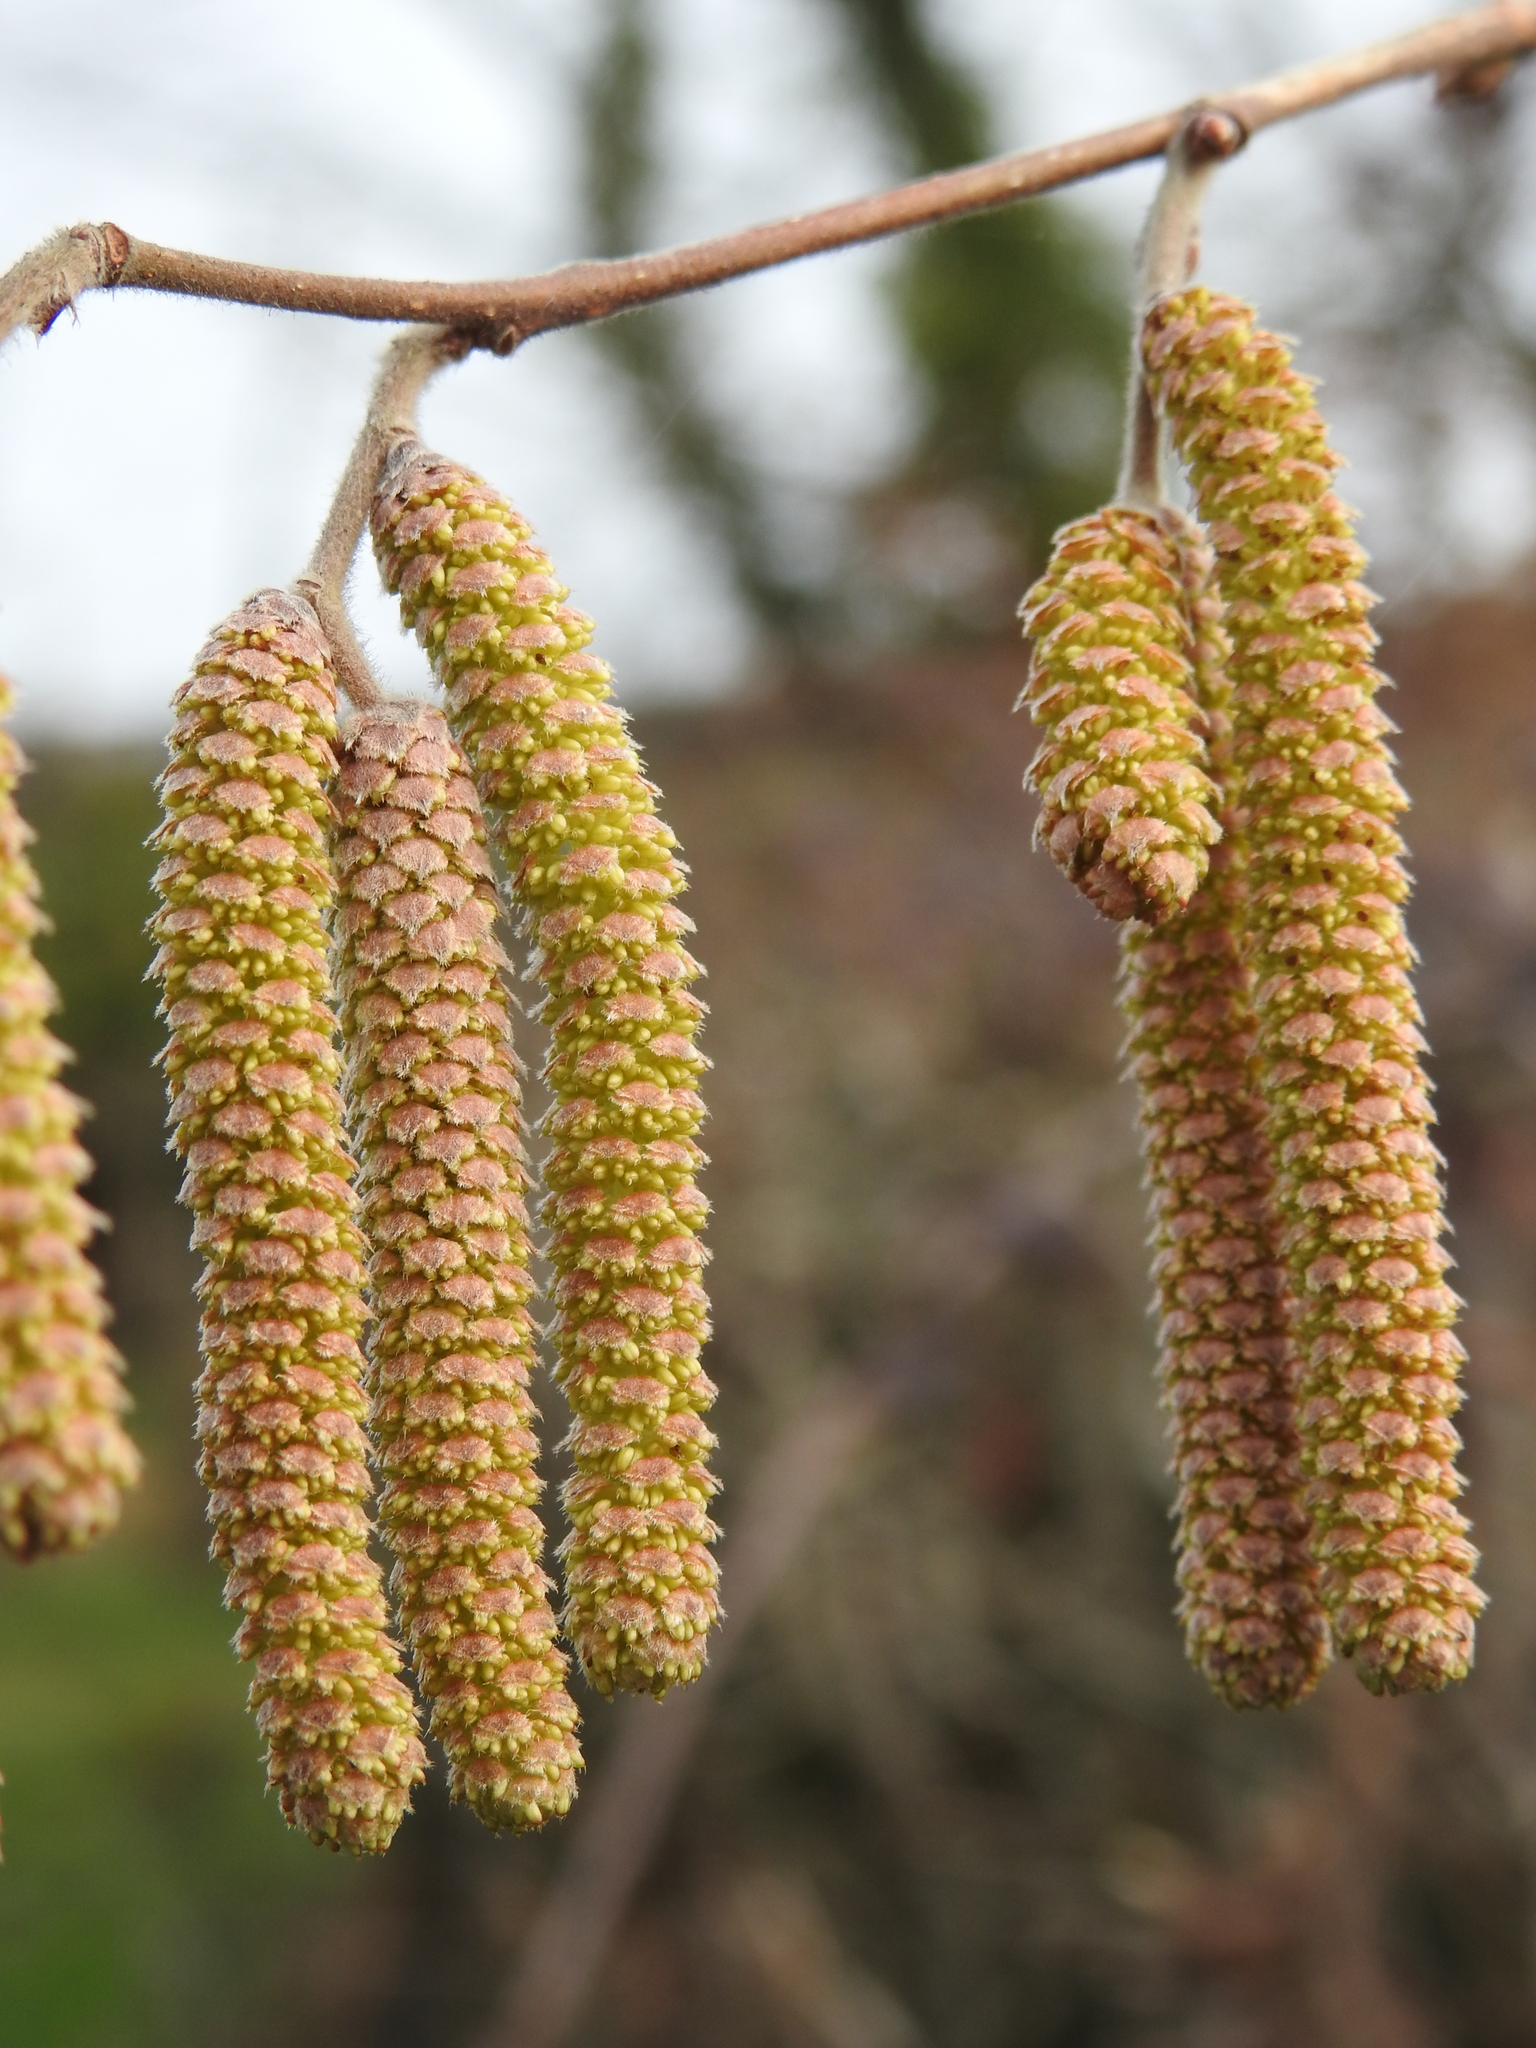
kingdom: Plantae
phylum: Tracheophyta
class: Magnoliopsida
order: Fagales
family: Betulaceae
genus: Corylus
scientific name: Corylus avellana
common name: European hazel
